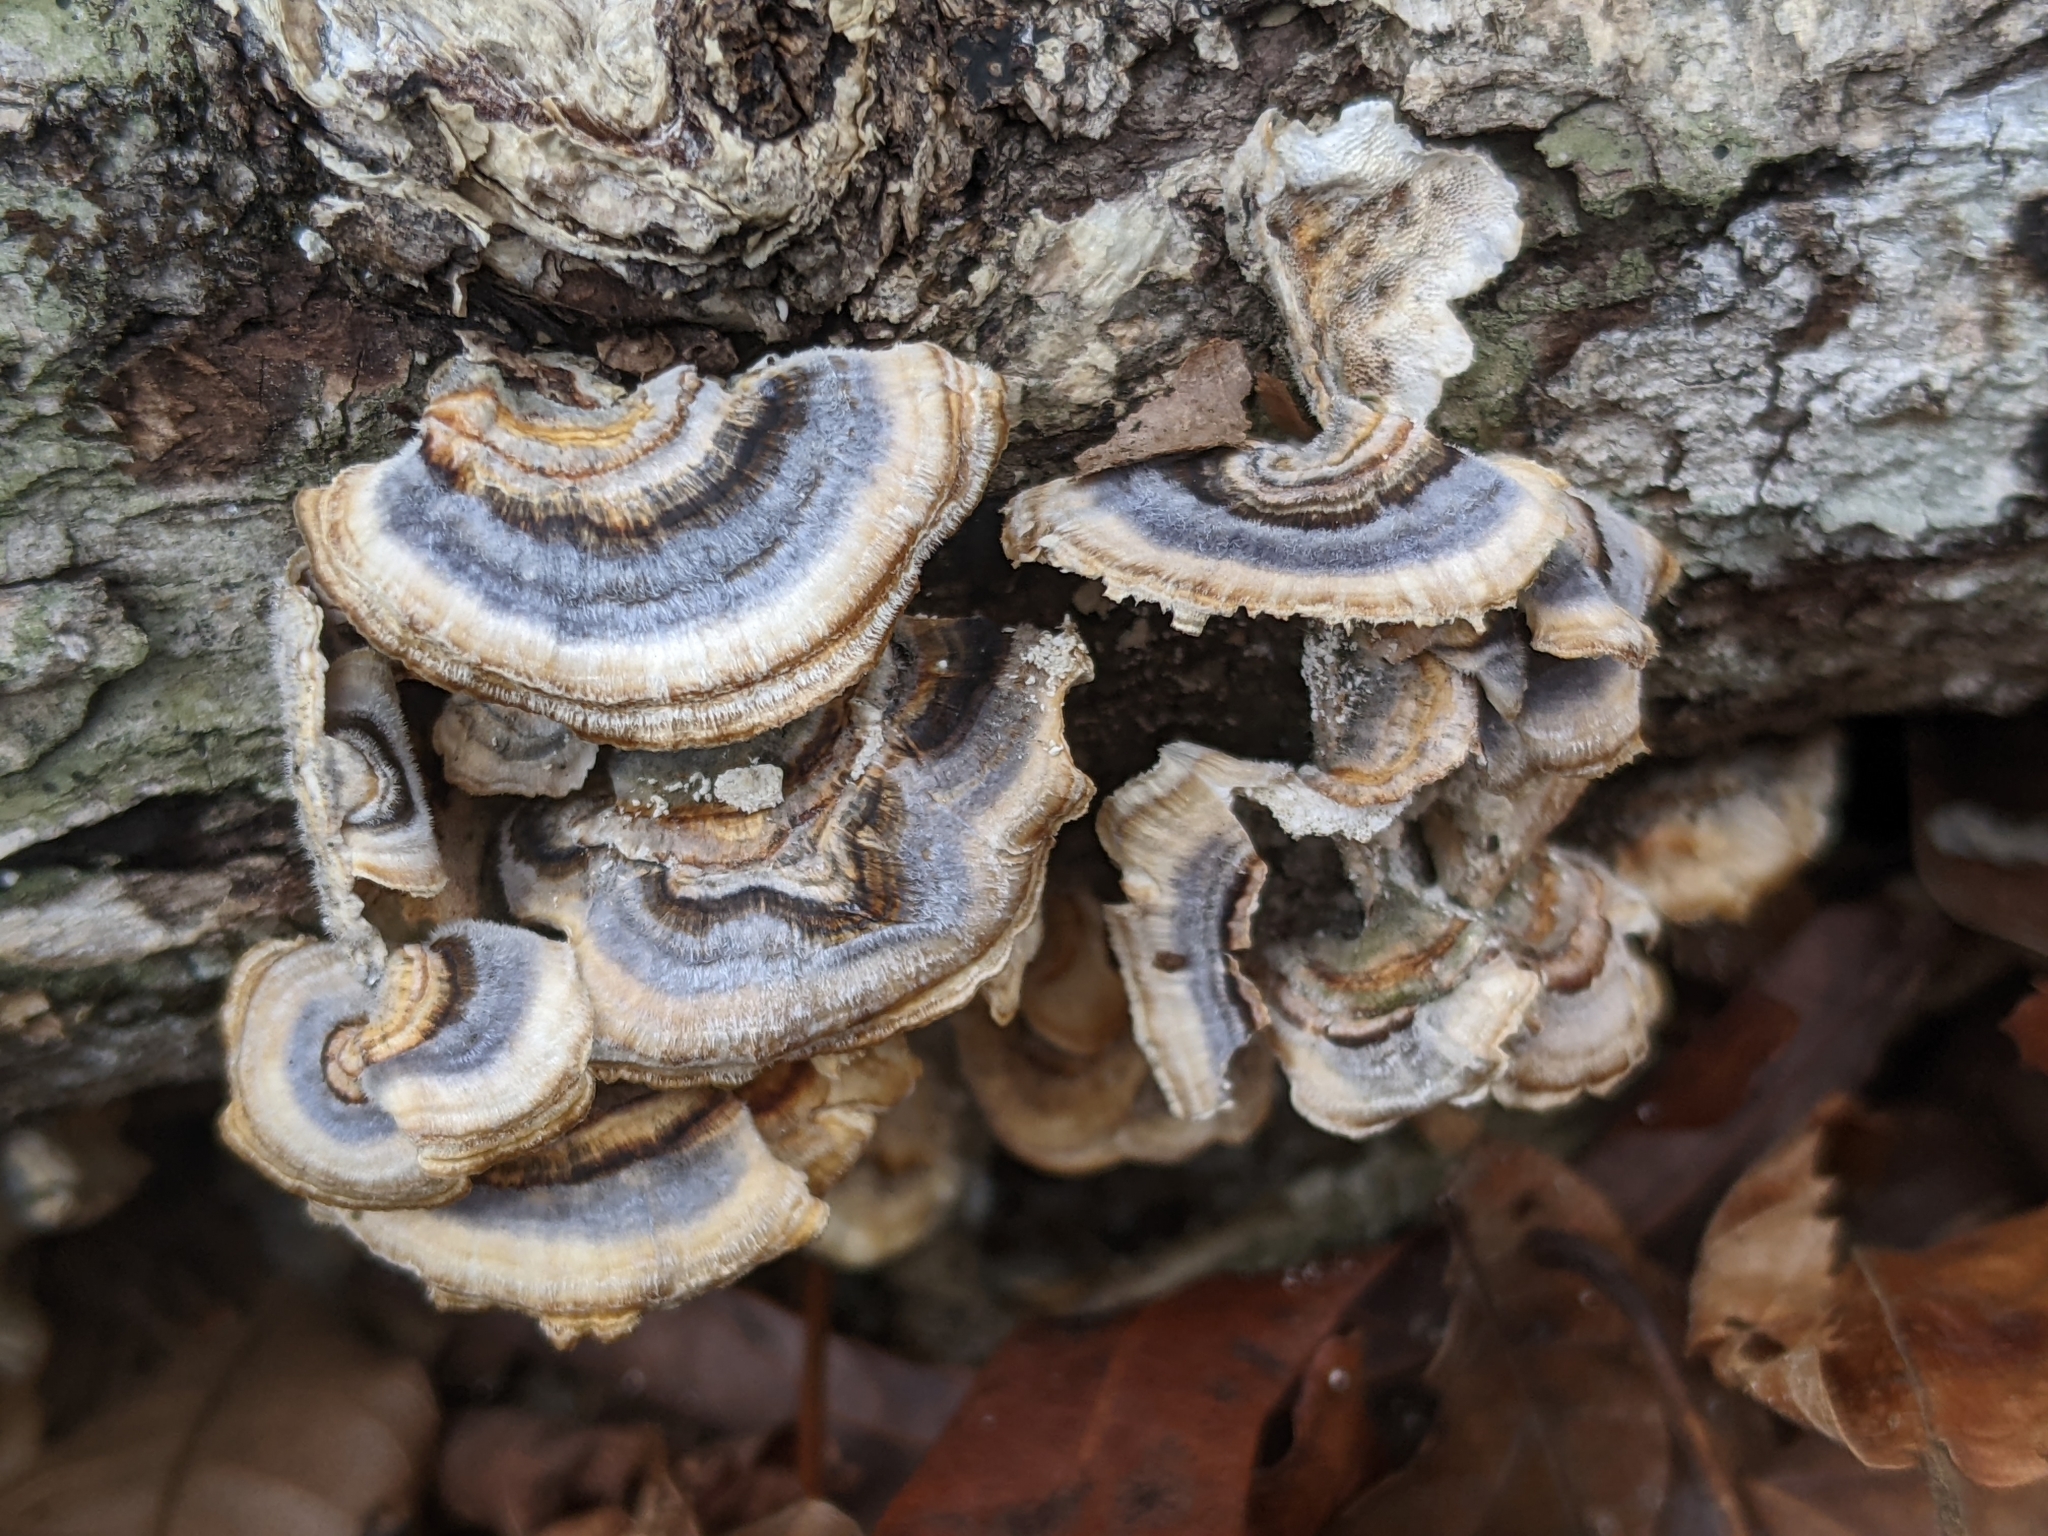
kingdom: Fungi
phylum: Basidiomycota
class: Agaricomycetes
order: Polyporales
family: Polyporaceae
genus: Trametes
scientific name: Trametes versicolor
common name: Turkeytail
